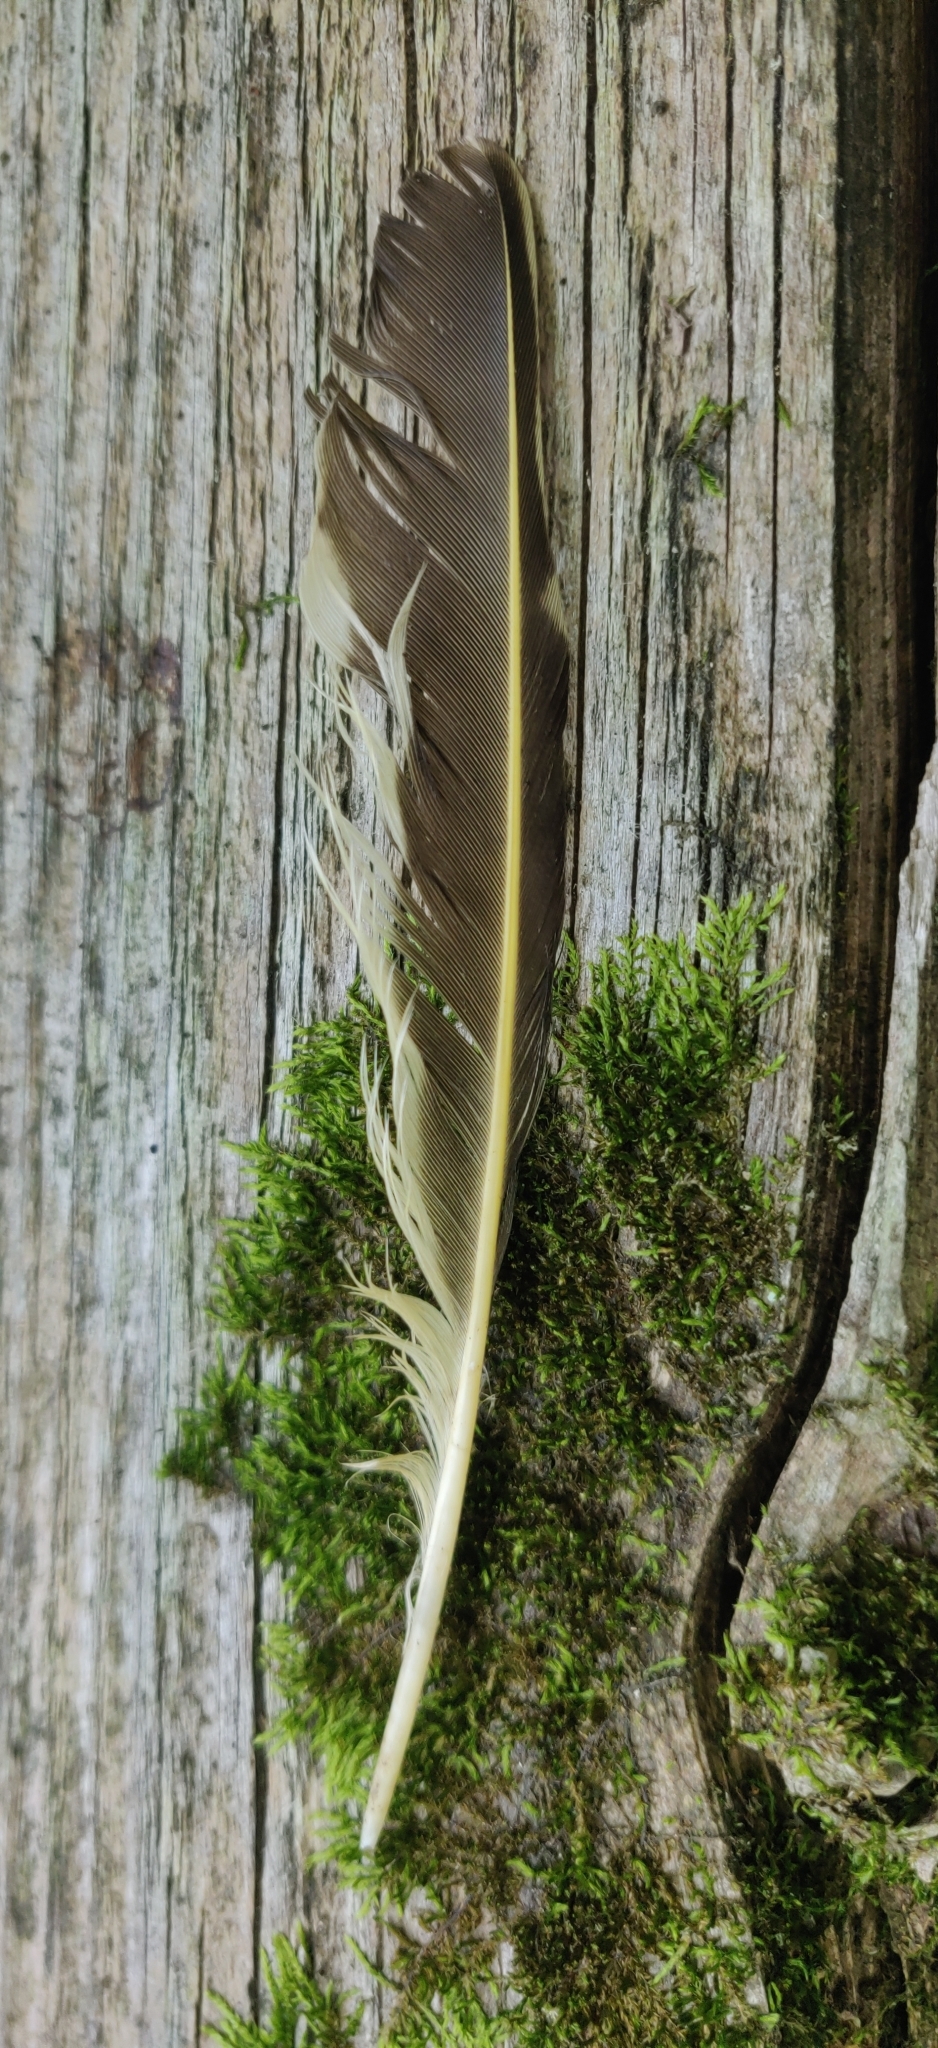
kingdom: Animalia
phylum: Chordata
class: Aves
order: Piciformes
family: Picidae
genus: Colaptes
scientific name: Colaptes auratus
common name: Northern flicker
